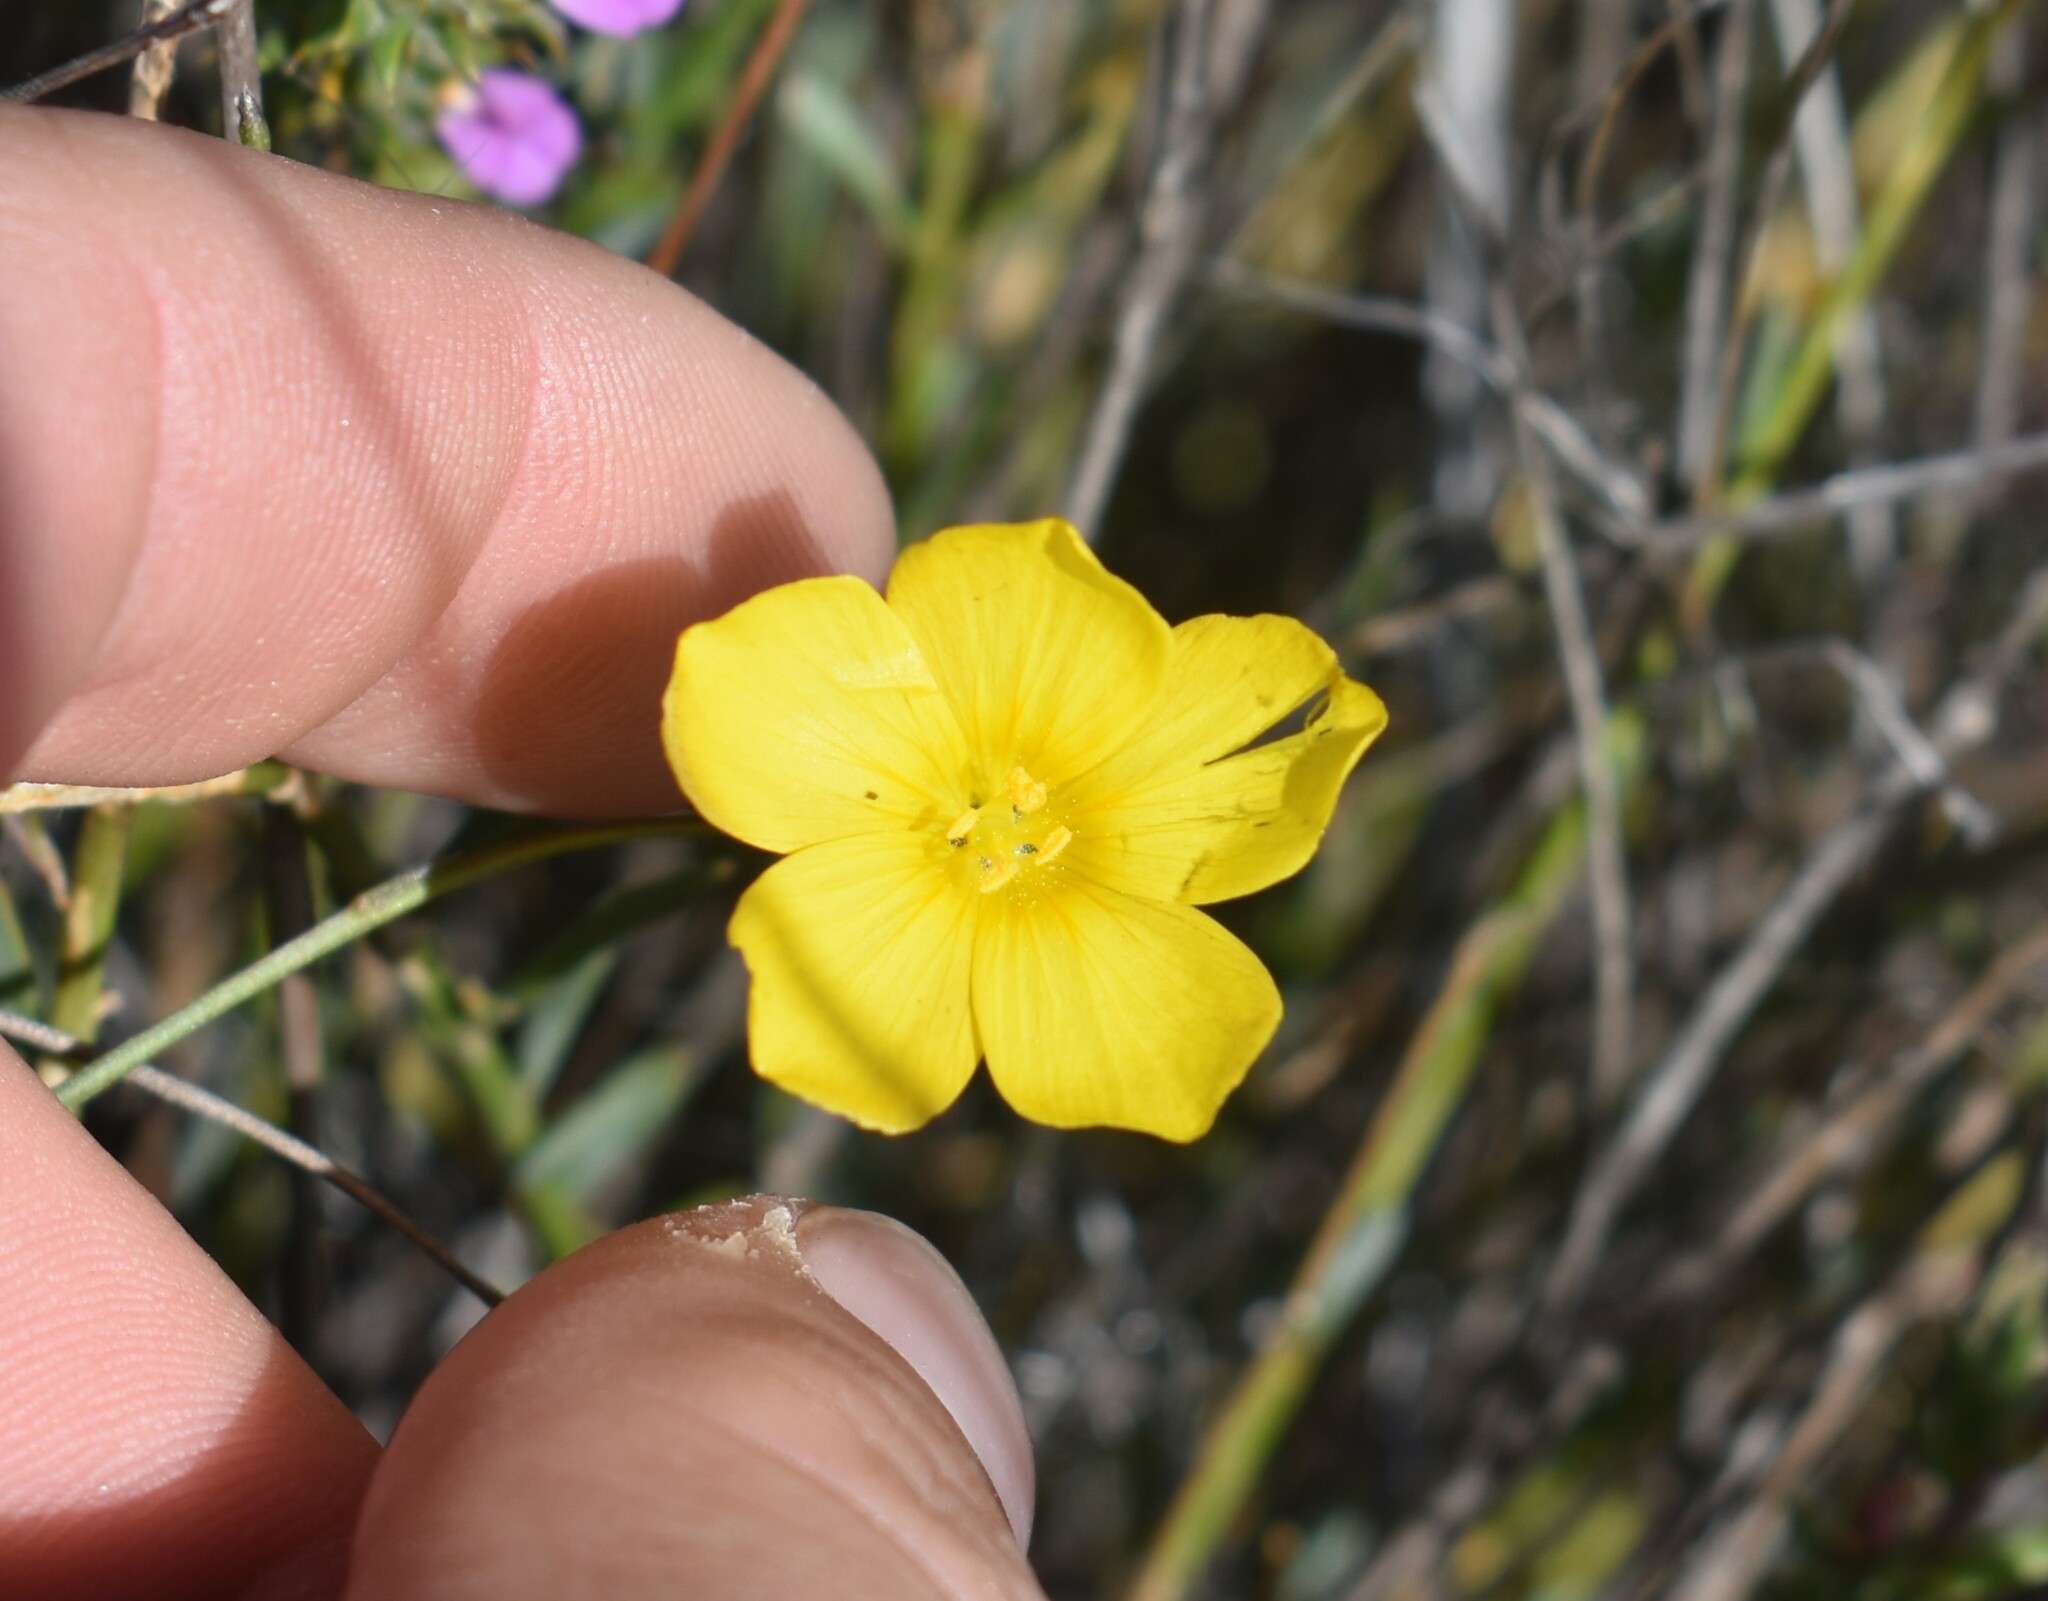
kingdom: Plantae
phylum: Tracheophyta
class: Magnoliopsida
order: Malpighiales
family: Linaceae
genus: Linum
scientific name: Linum africanum
